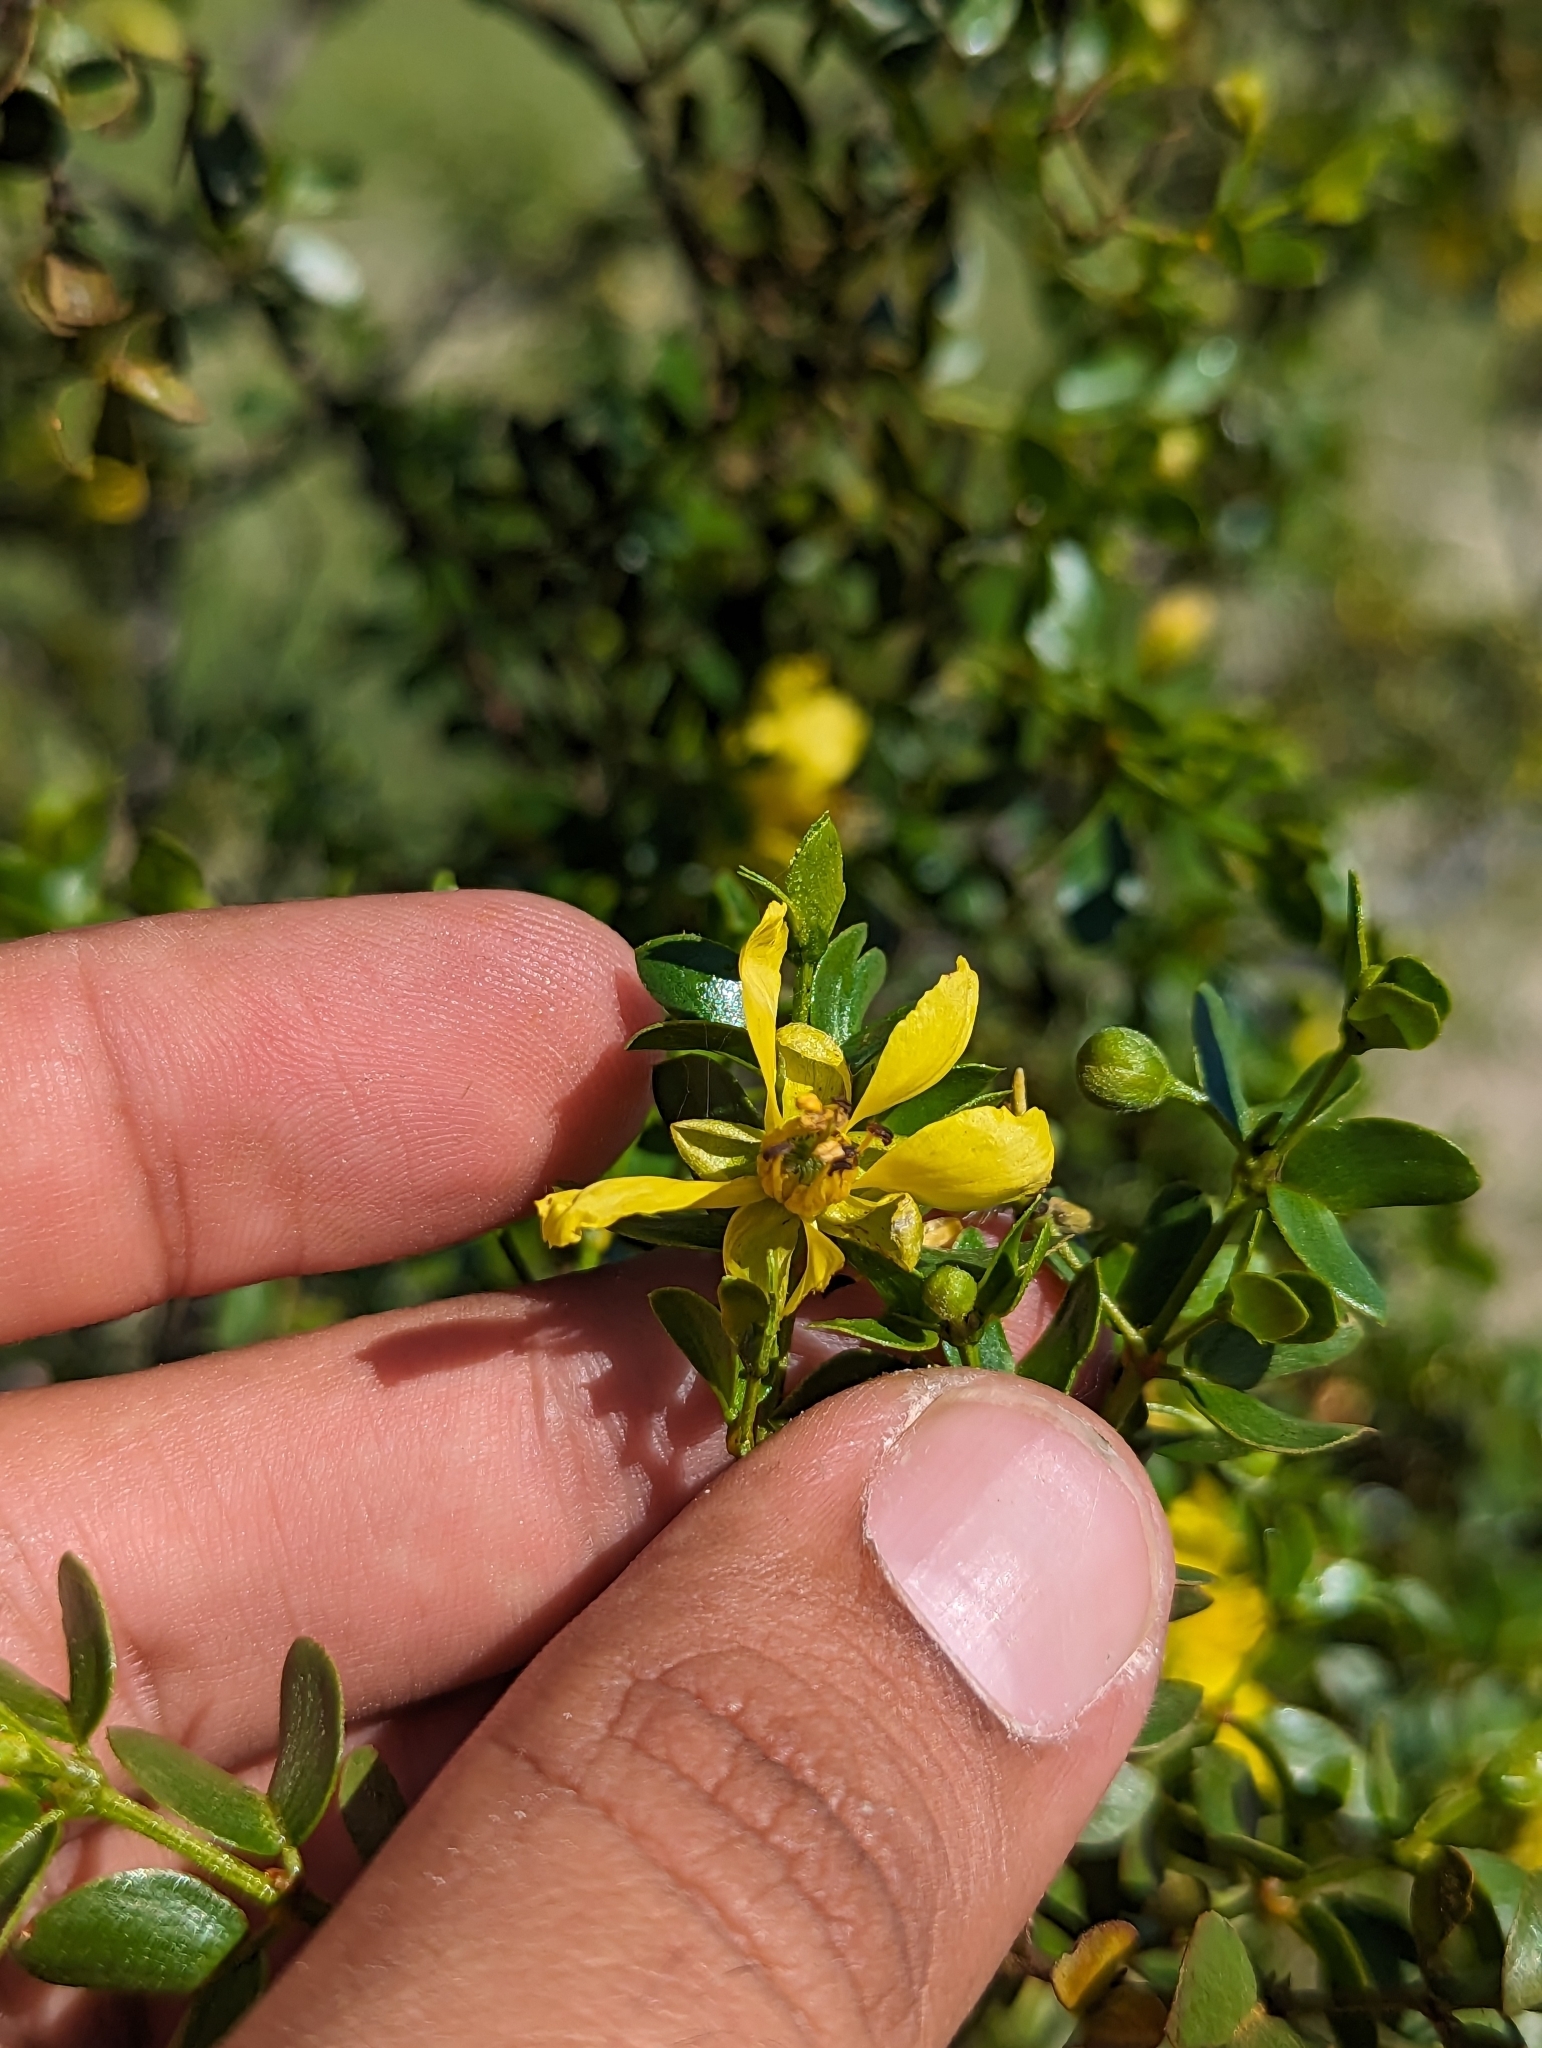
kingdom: Plantae
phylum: Tracheophyta
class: Magnoliopsida
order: Zygophyllales
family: Zygophyllaceae
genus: Larrea
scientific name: Larrea tridentata
